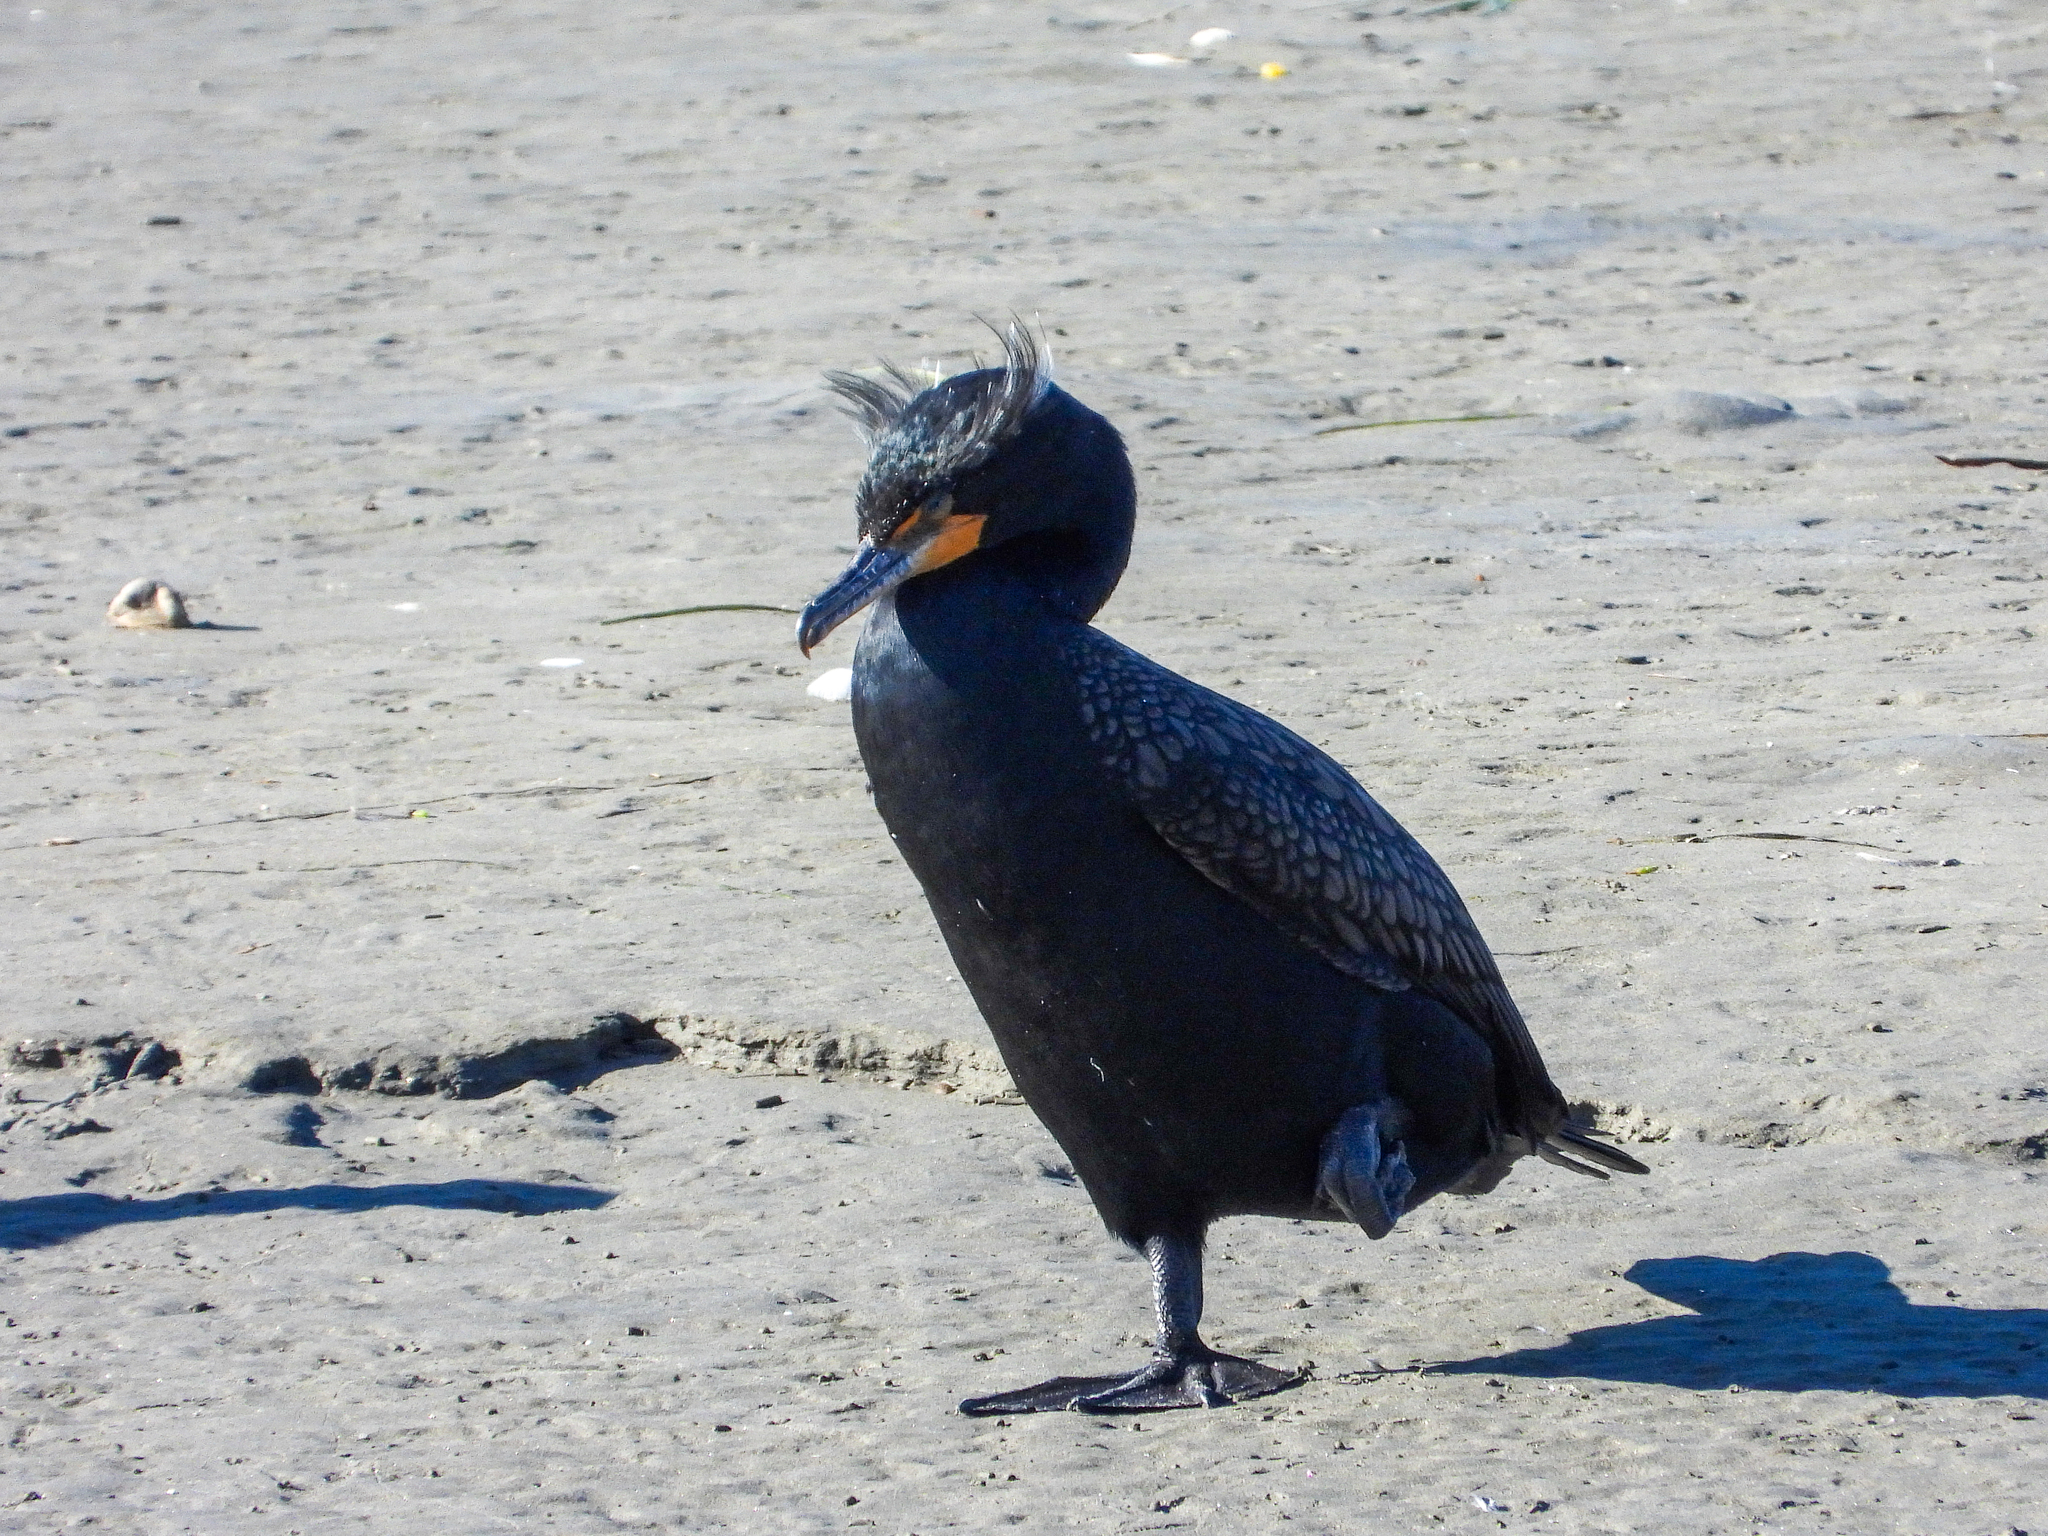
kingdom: Animalia
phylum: Chordata
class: Aves
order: Suliformes
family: Phalacrocoracidae
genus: Phalacrocorax
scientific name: Phalacrocorax auritus
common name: Double-crested cormorant
